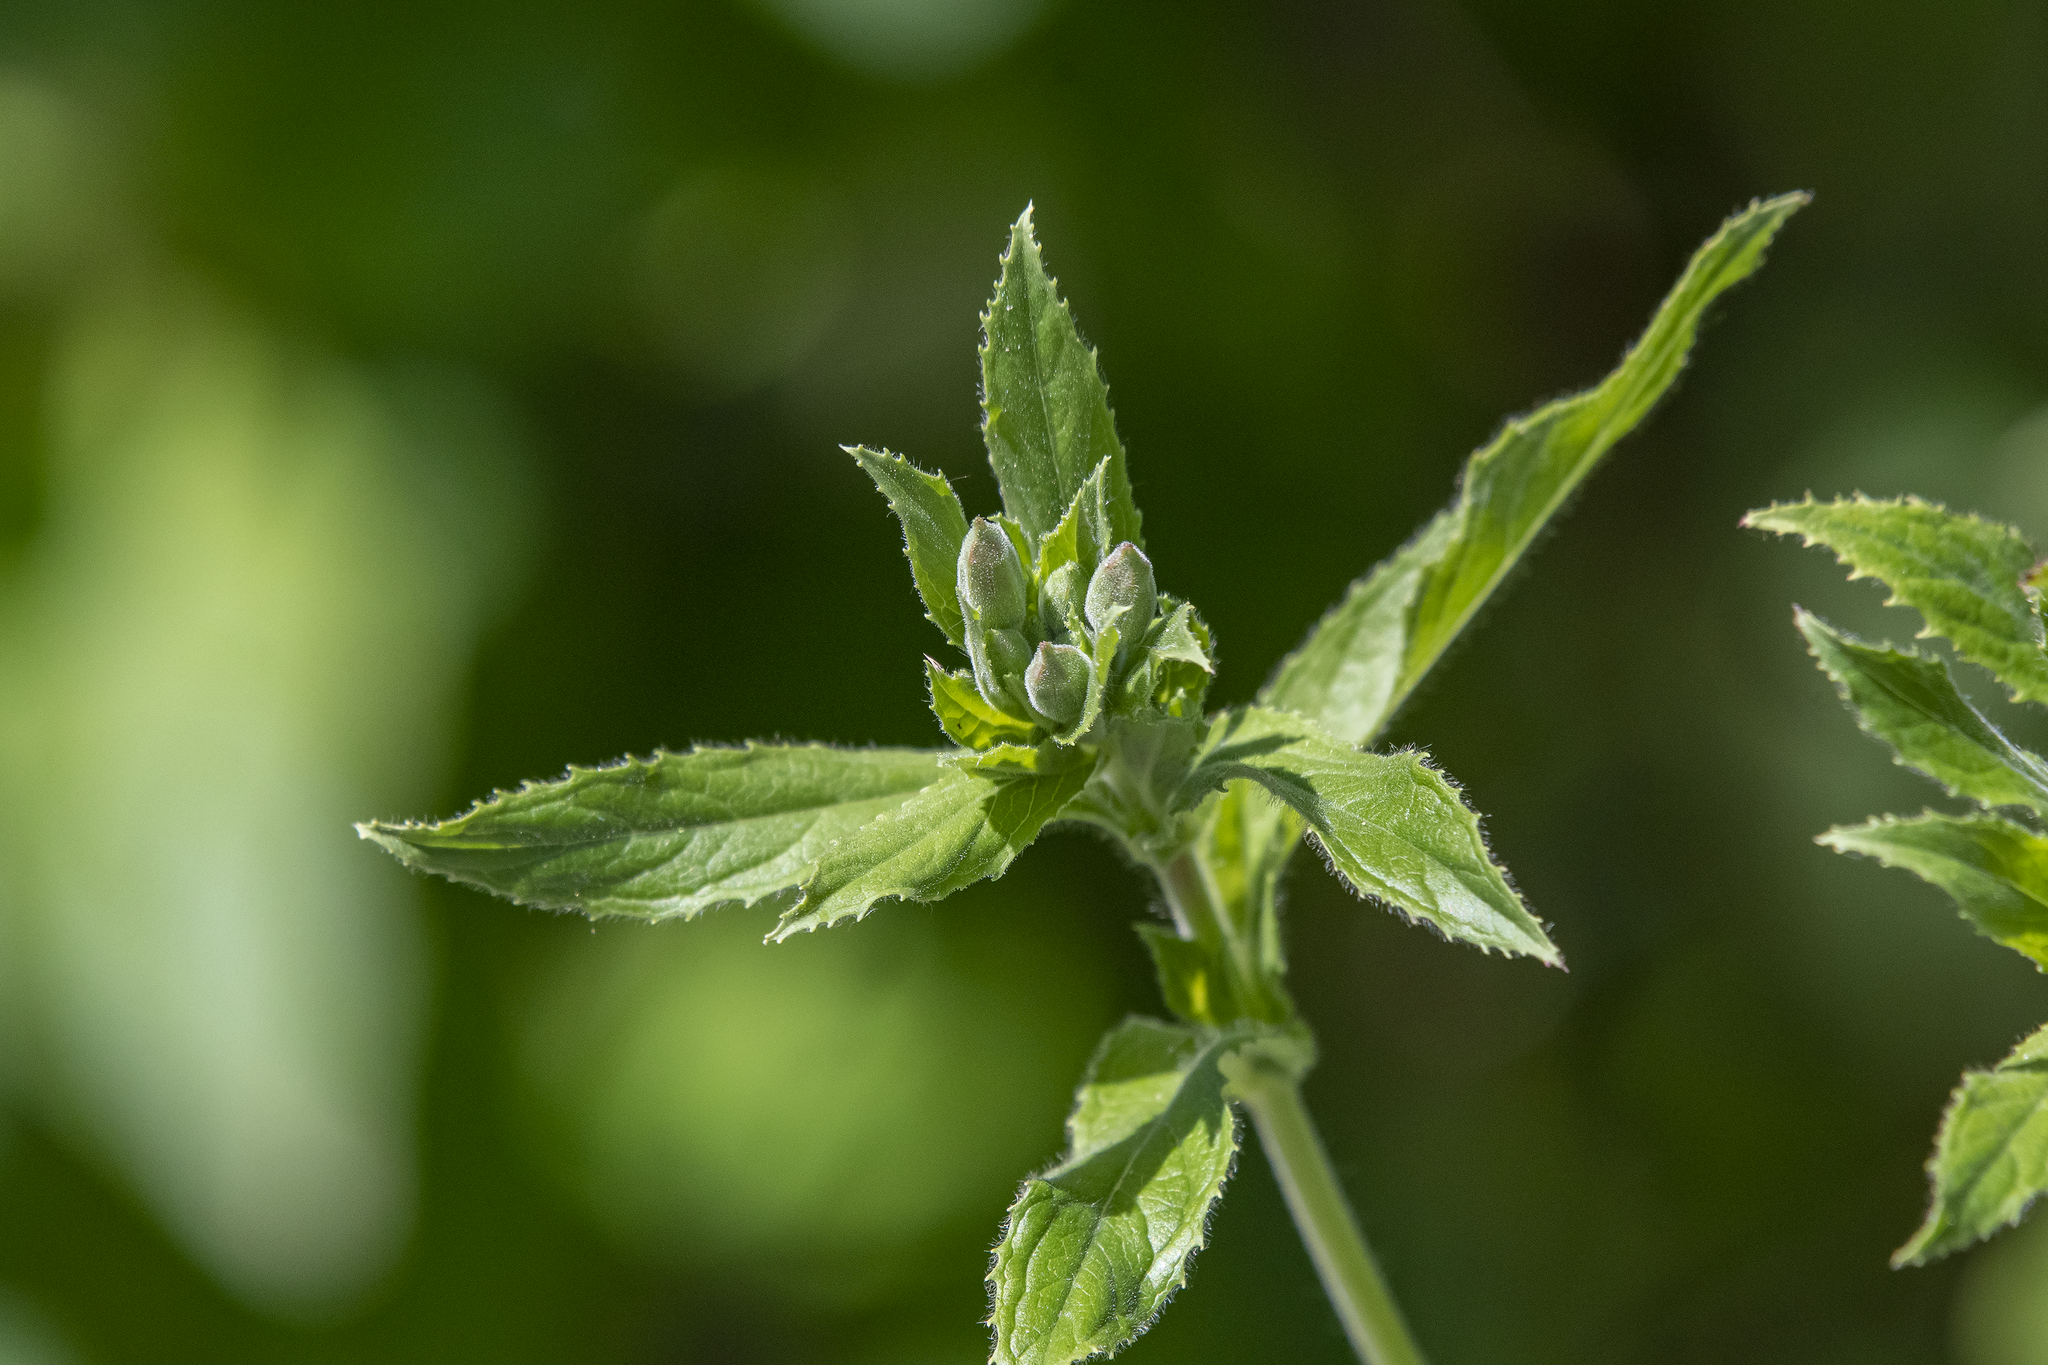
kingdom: Plantae
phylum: Tracheophyta
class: Magnoliopsida
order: Myrtales
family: Onagraceae
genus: Epilobium
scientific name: Epilobium hirsutum
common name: Great willowherb
